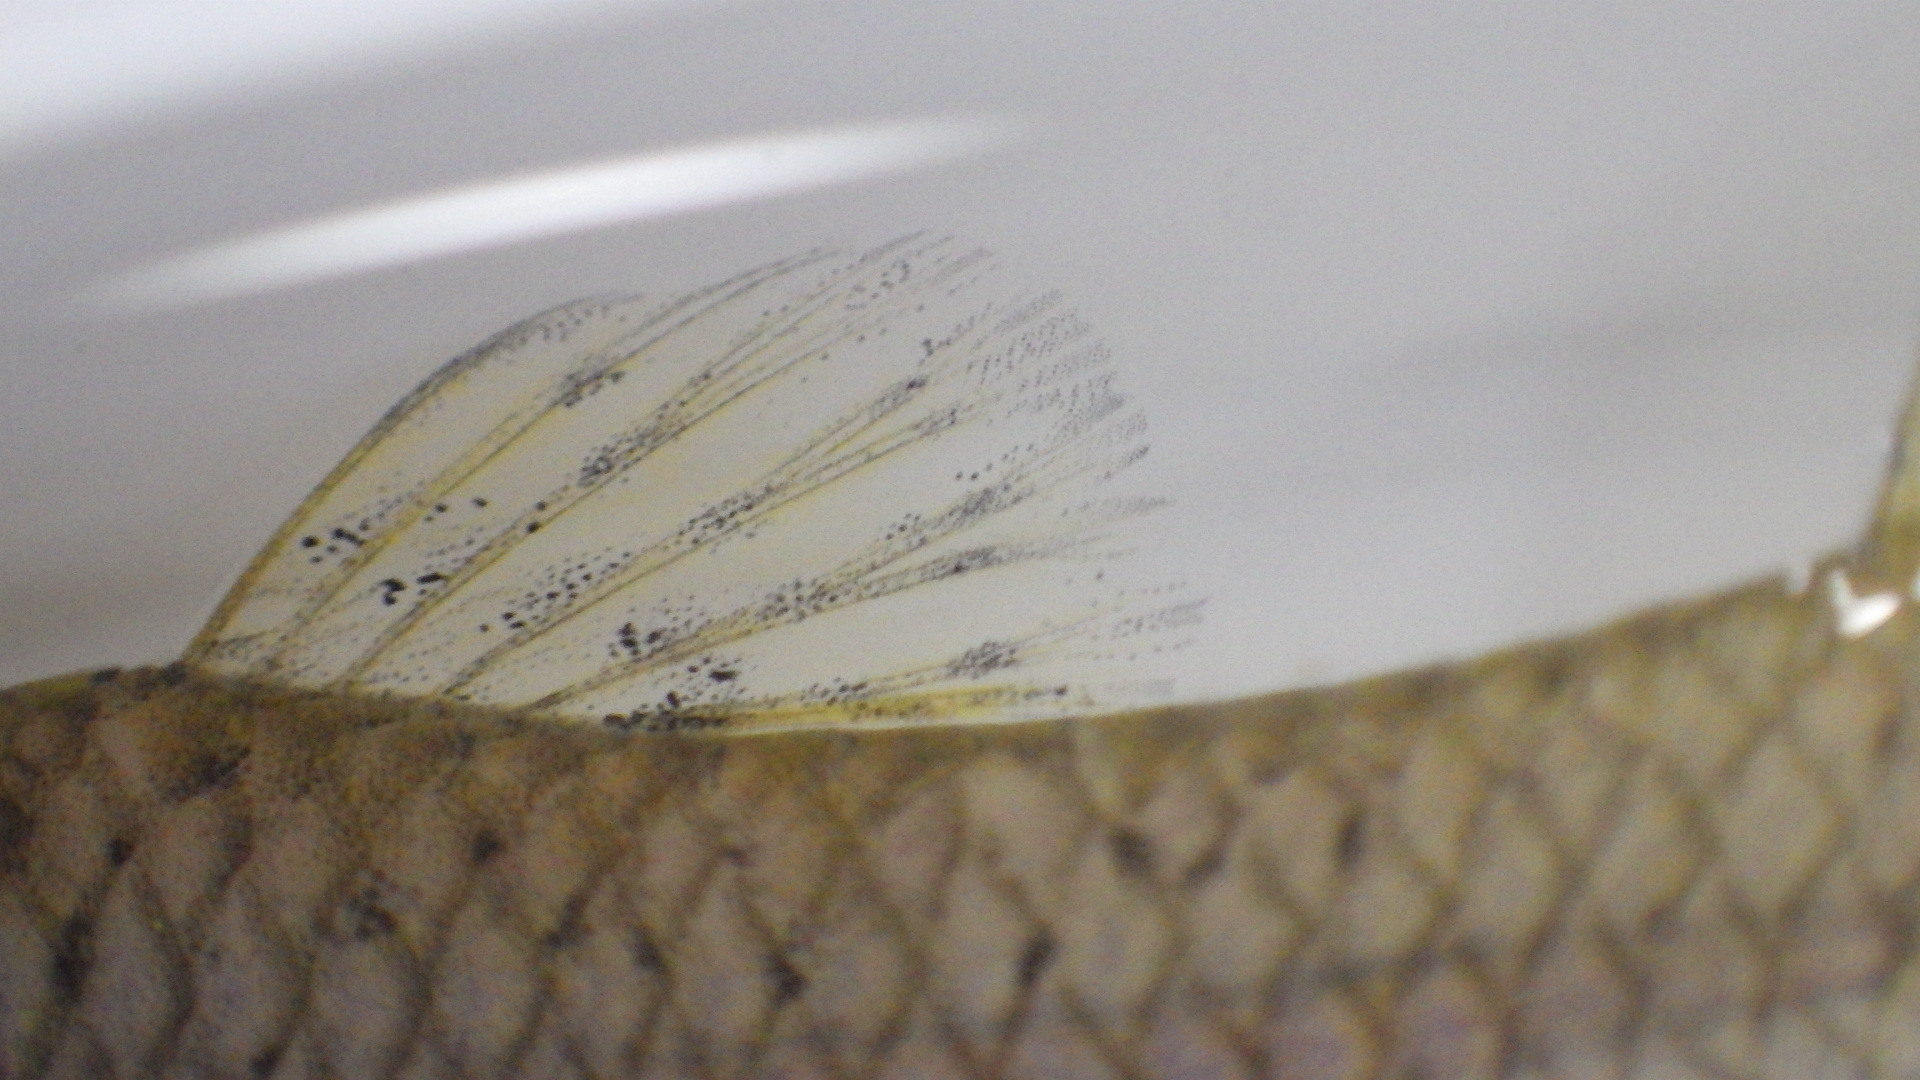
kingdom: Animalia
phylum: Chordata
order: Cyprinodontiformes
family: Poeciliidae
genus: Gambusia
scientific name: Gambusia affinis
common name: Mosquitofish
